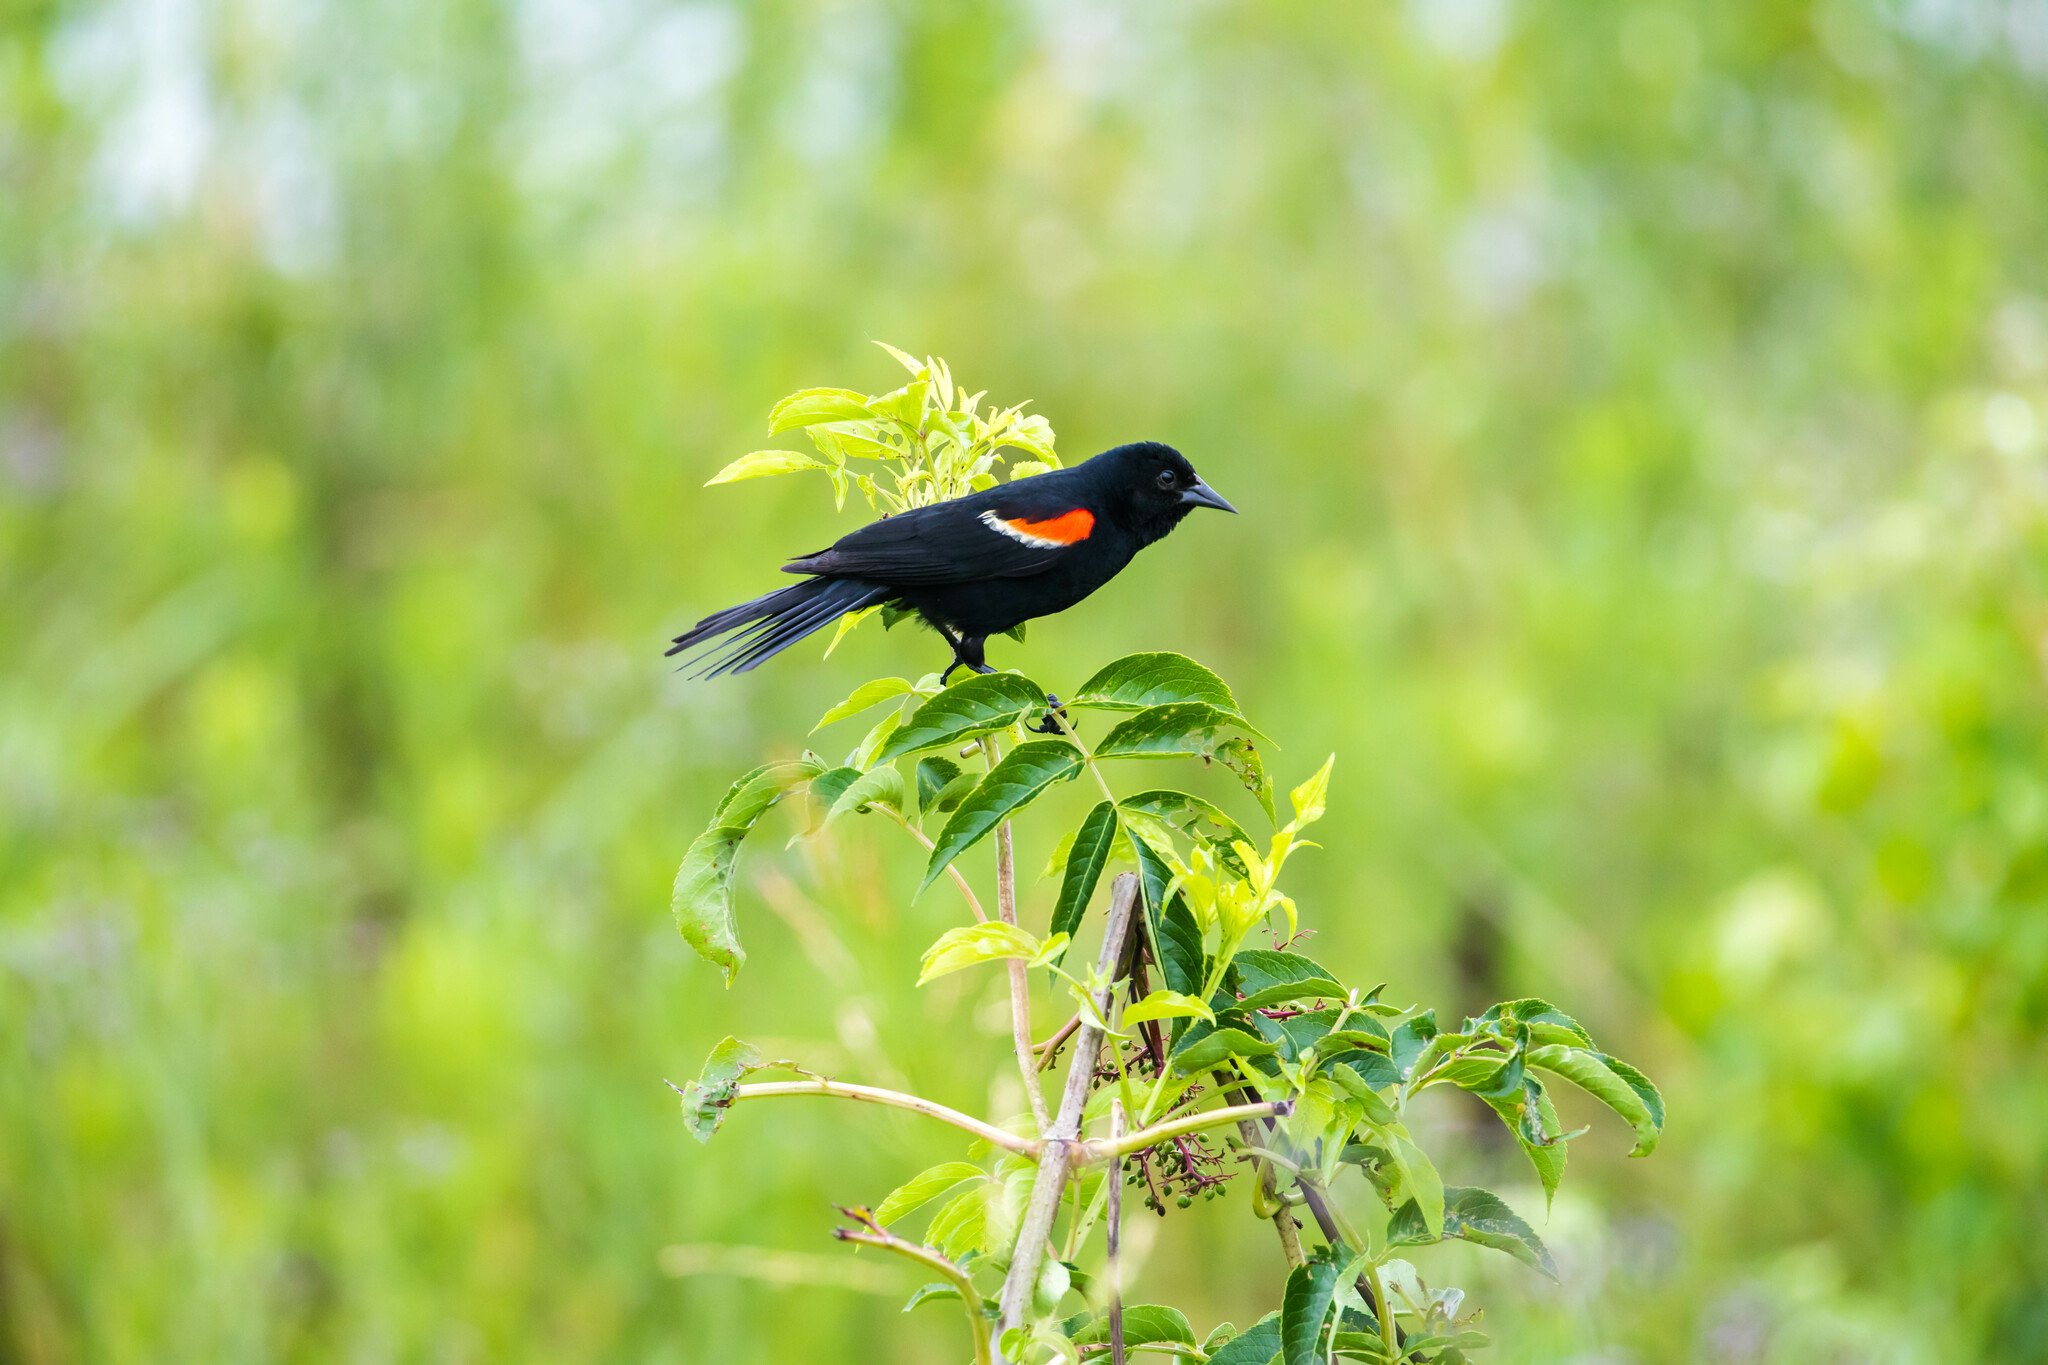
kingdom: Animalia
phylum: Chordata
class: Aves
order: Passeriformes
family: Icteridae
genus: Agelaius
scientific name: Agelaius phoeniceus
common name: Red-winged blackbird
